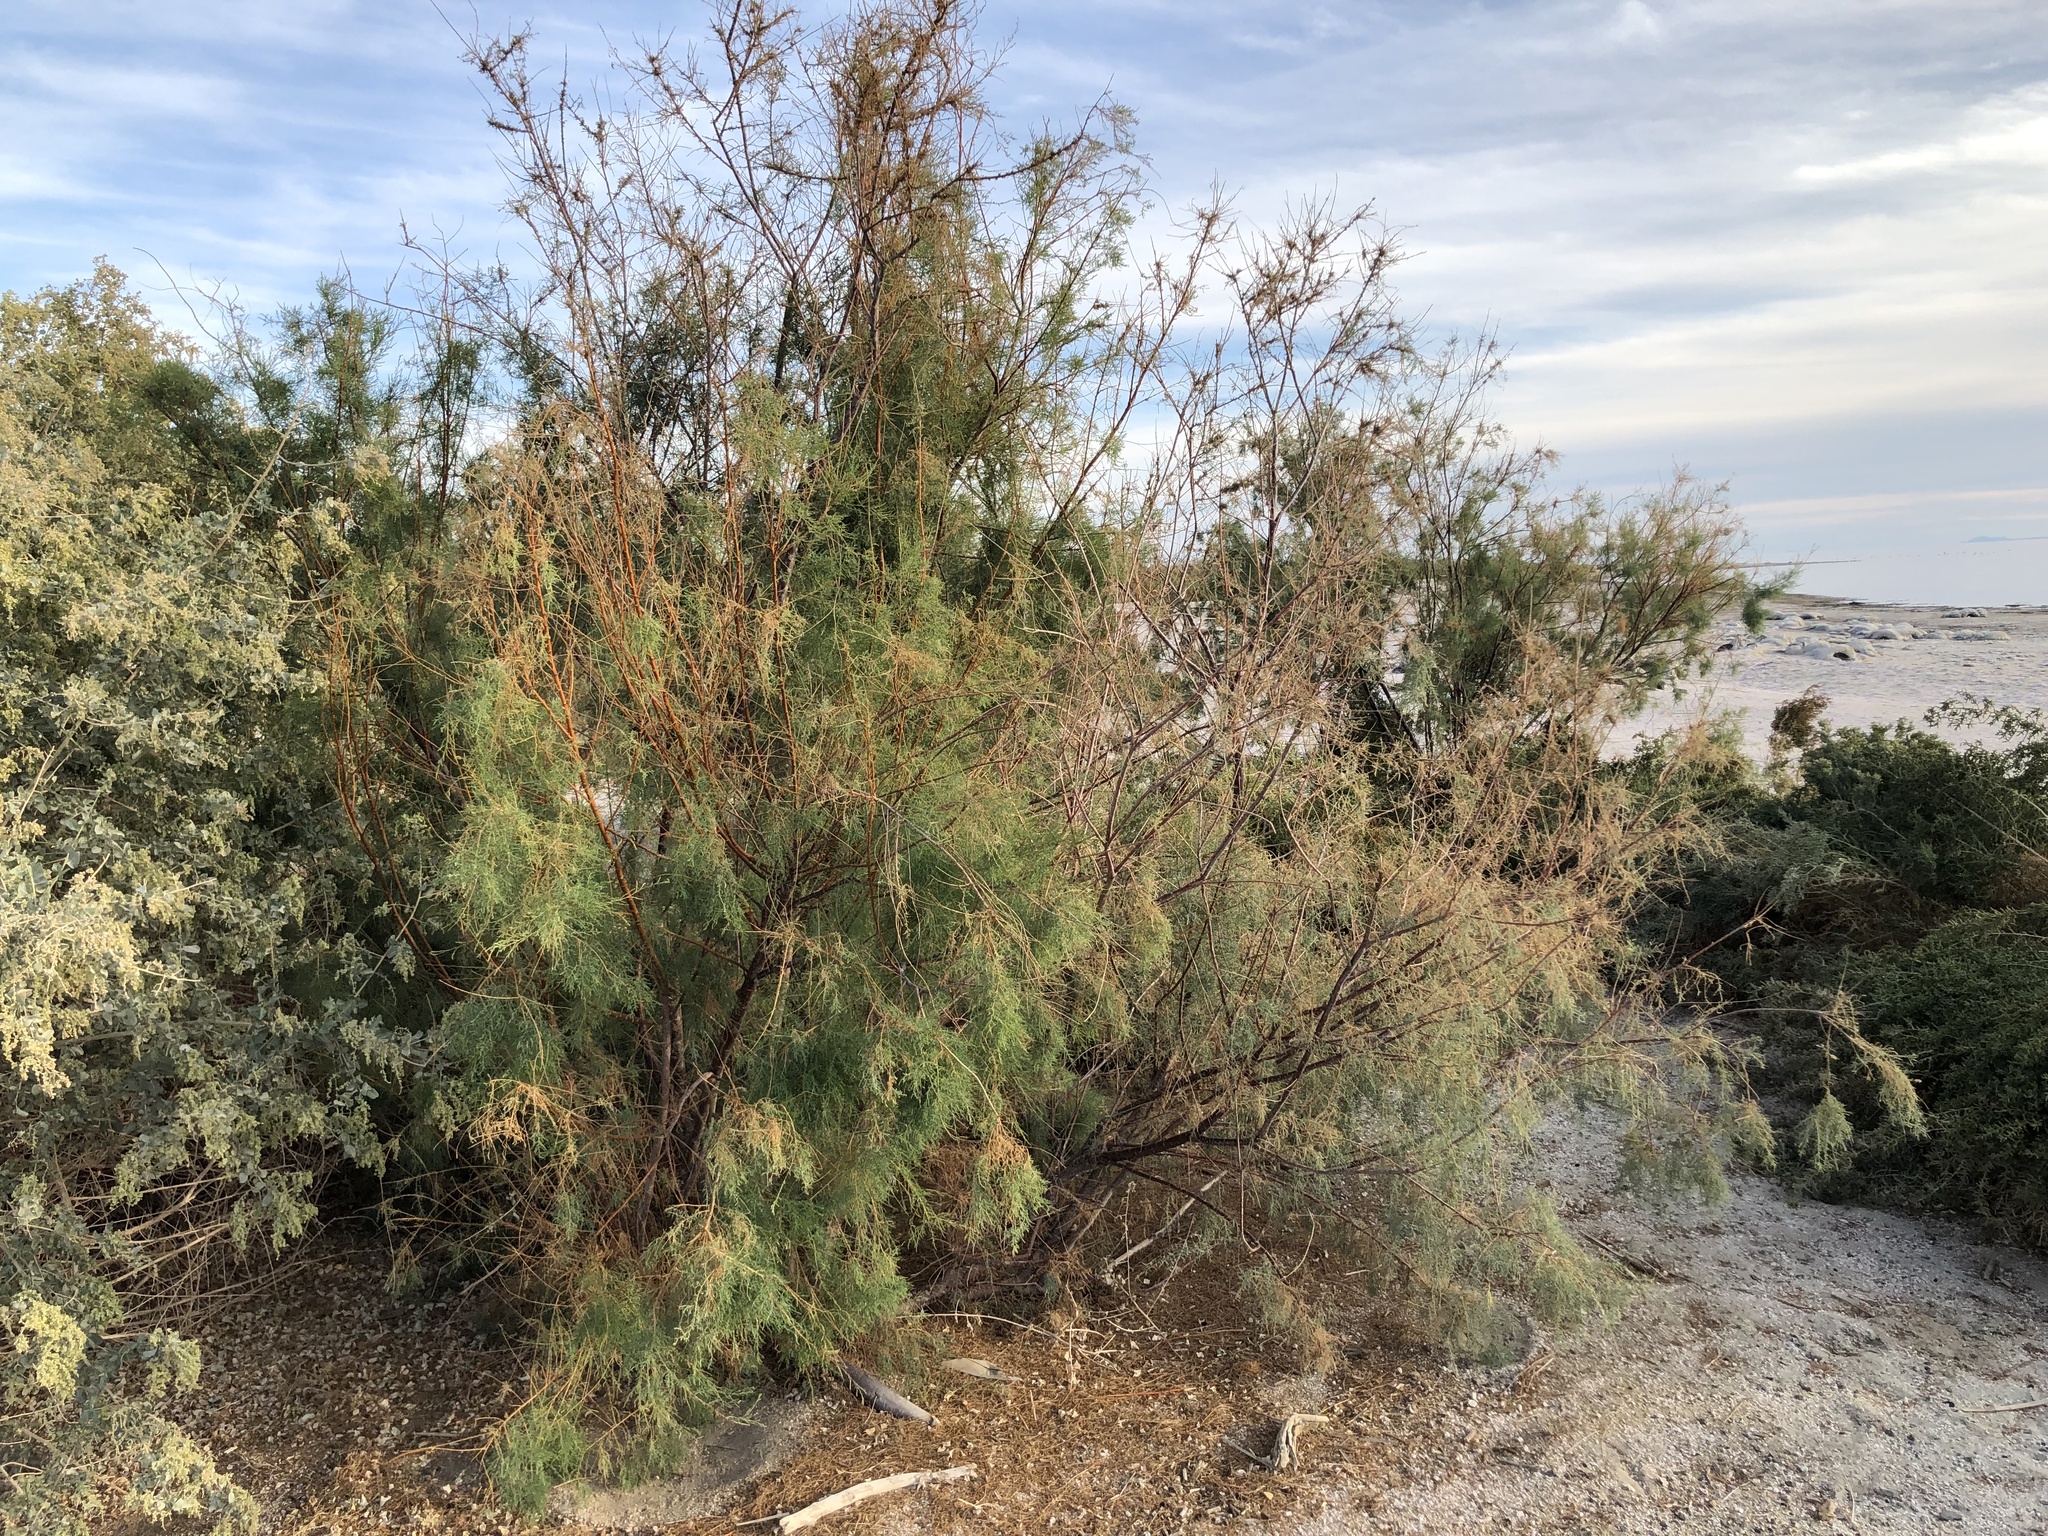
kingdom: Plantae
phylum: Tracheophyta
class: Magnoliopsida
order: Caryophyllales
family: Tamaricaceae
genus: Tamarix
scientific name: Tamarix ramosissima
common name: Pink tamarisk
